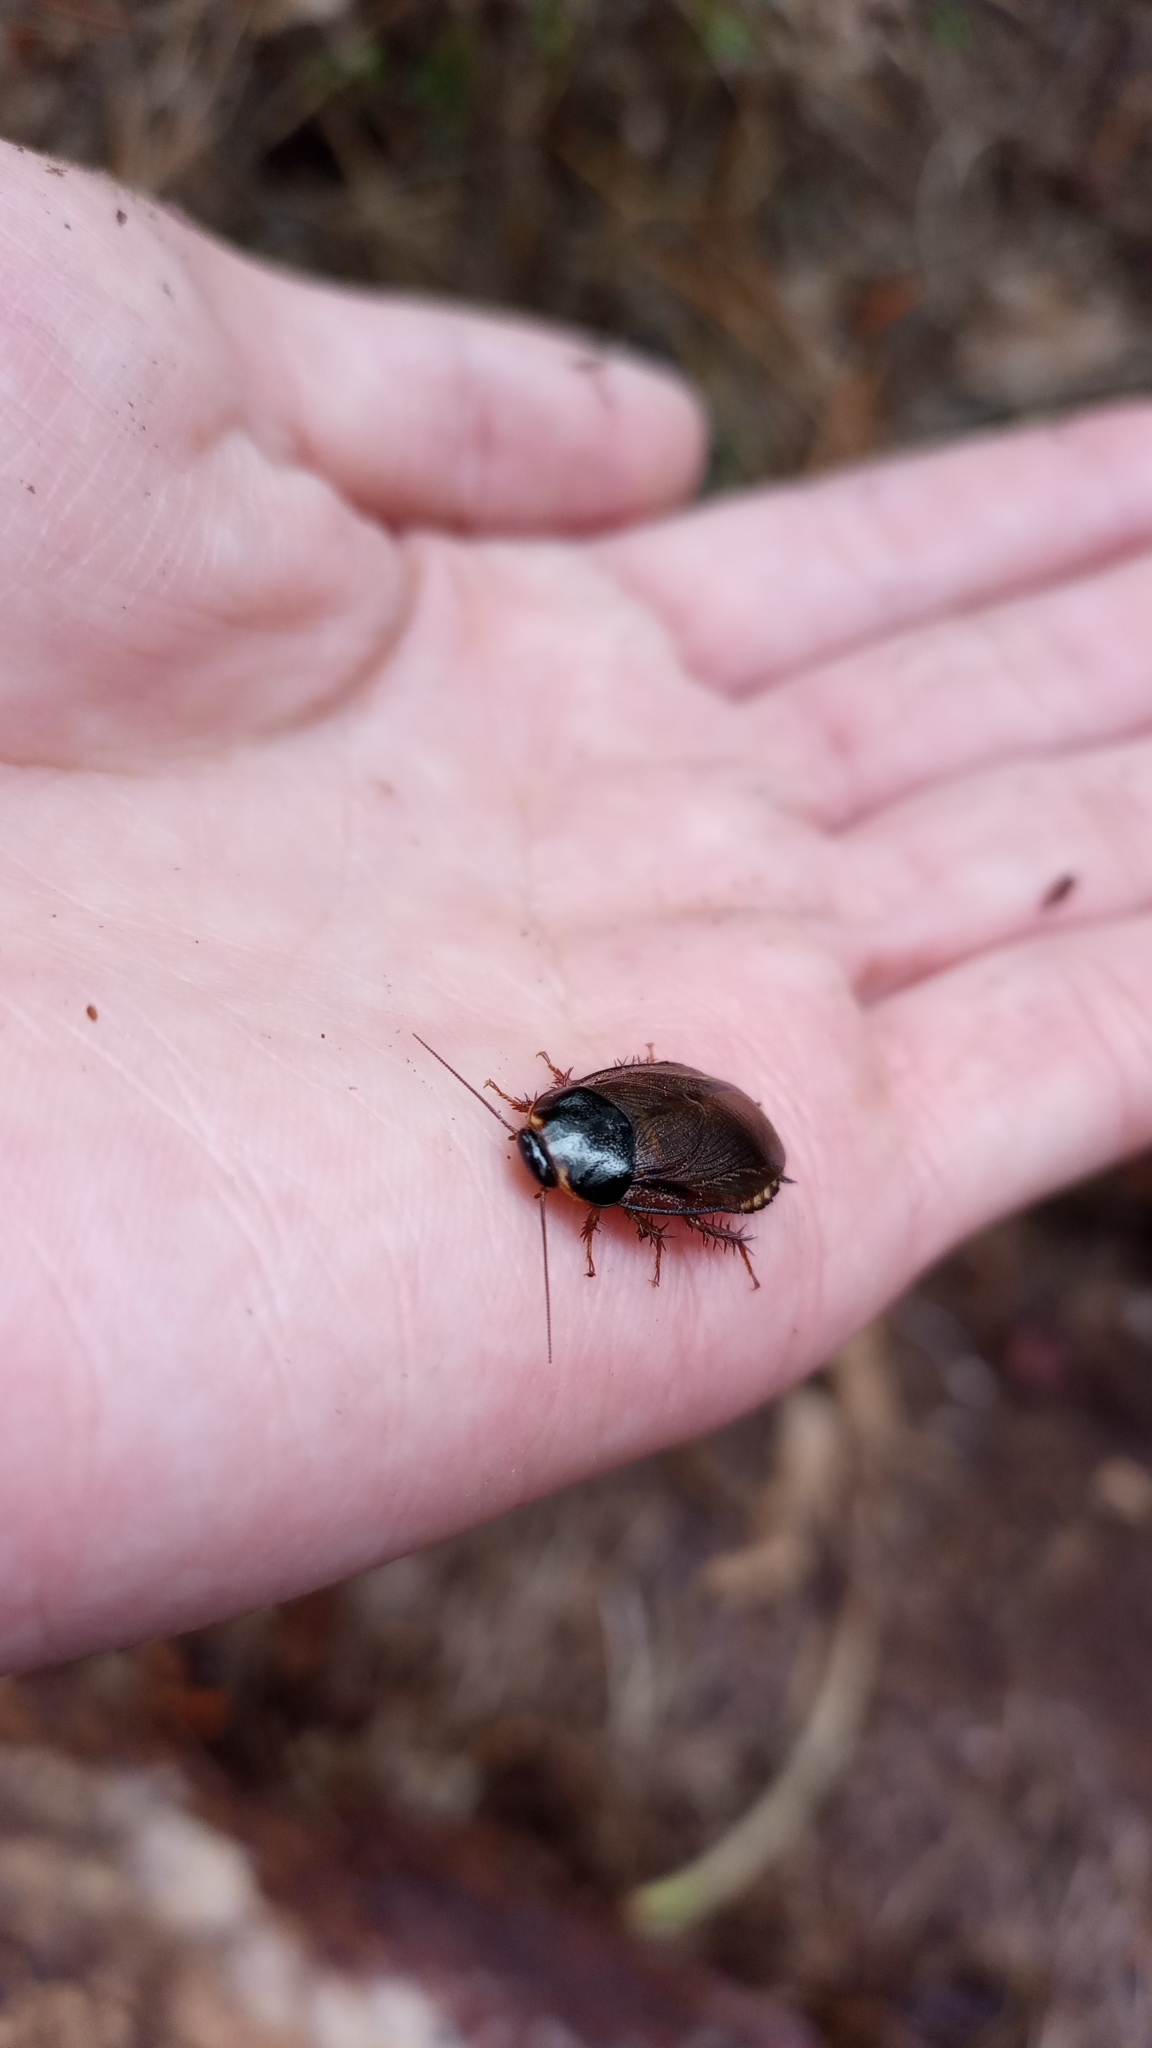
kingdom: Animalia
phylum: Arthropoda
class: Insecta
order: Blattodea
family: Blaberidae
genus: Pycnoscelus
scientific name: Pycnoscelus surinamensis
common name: Surinam cockroach
